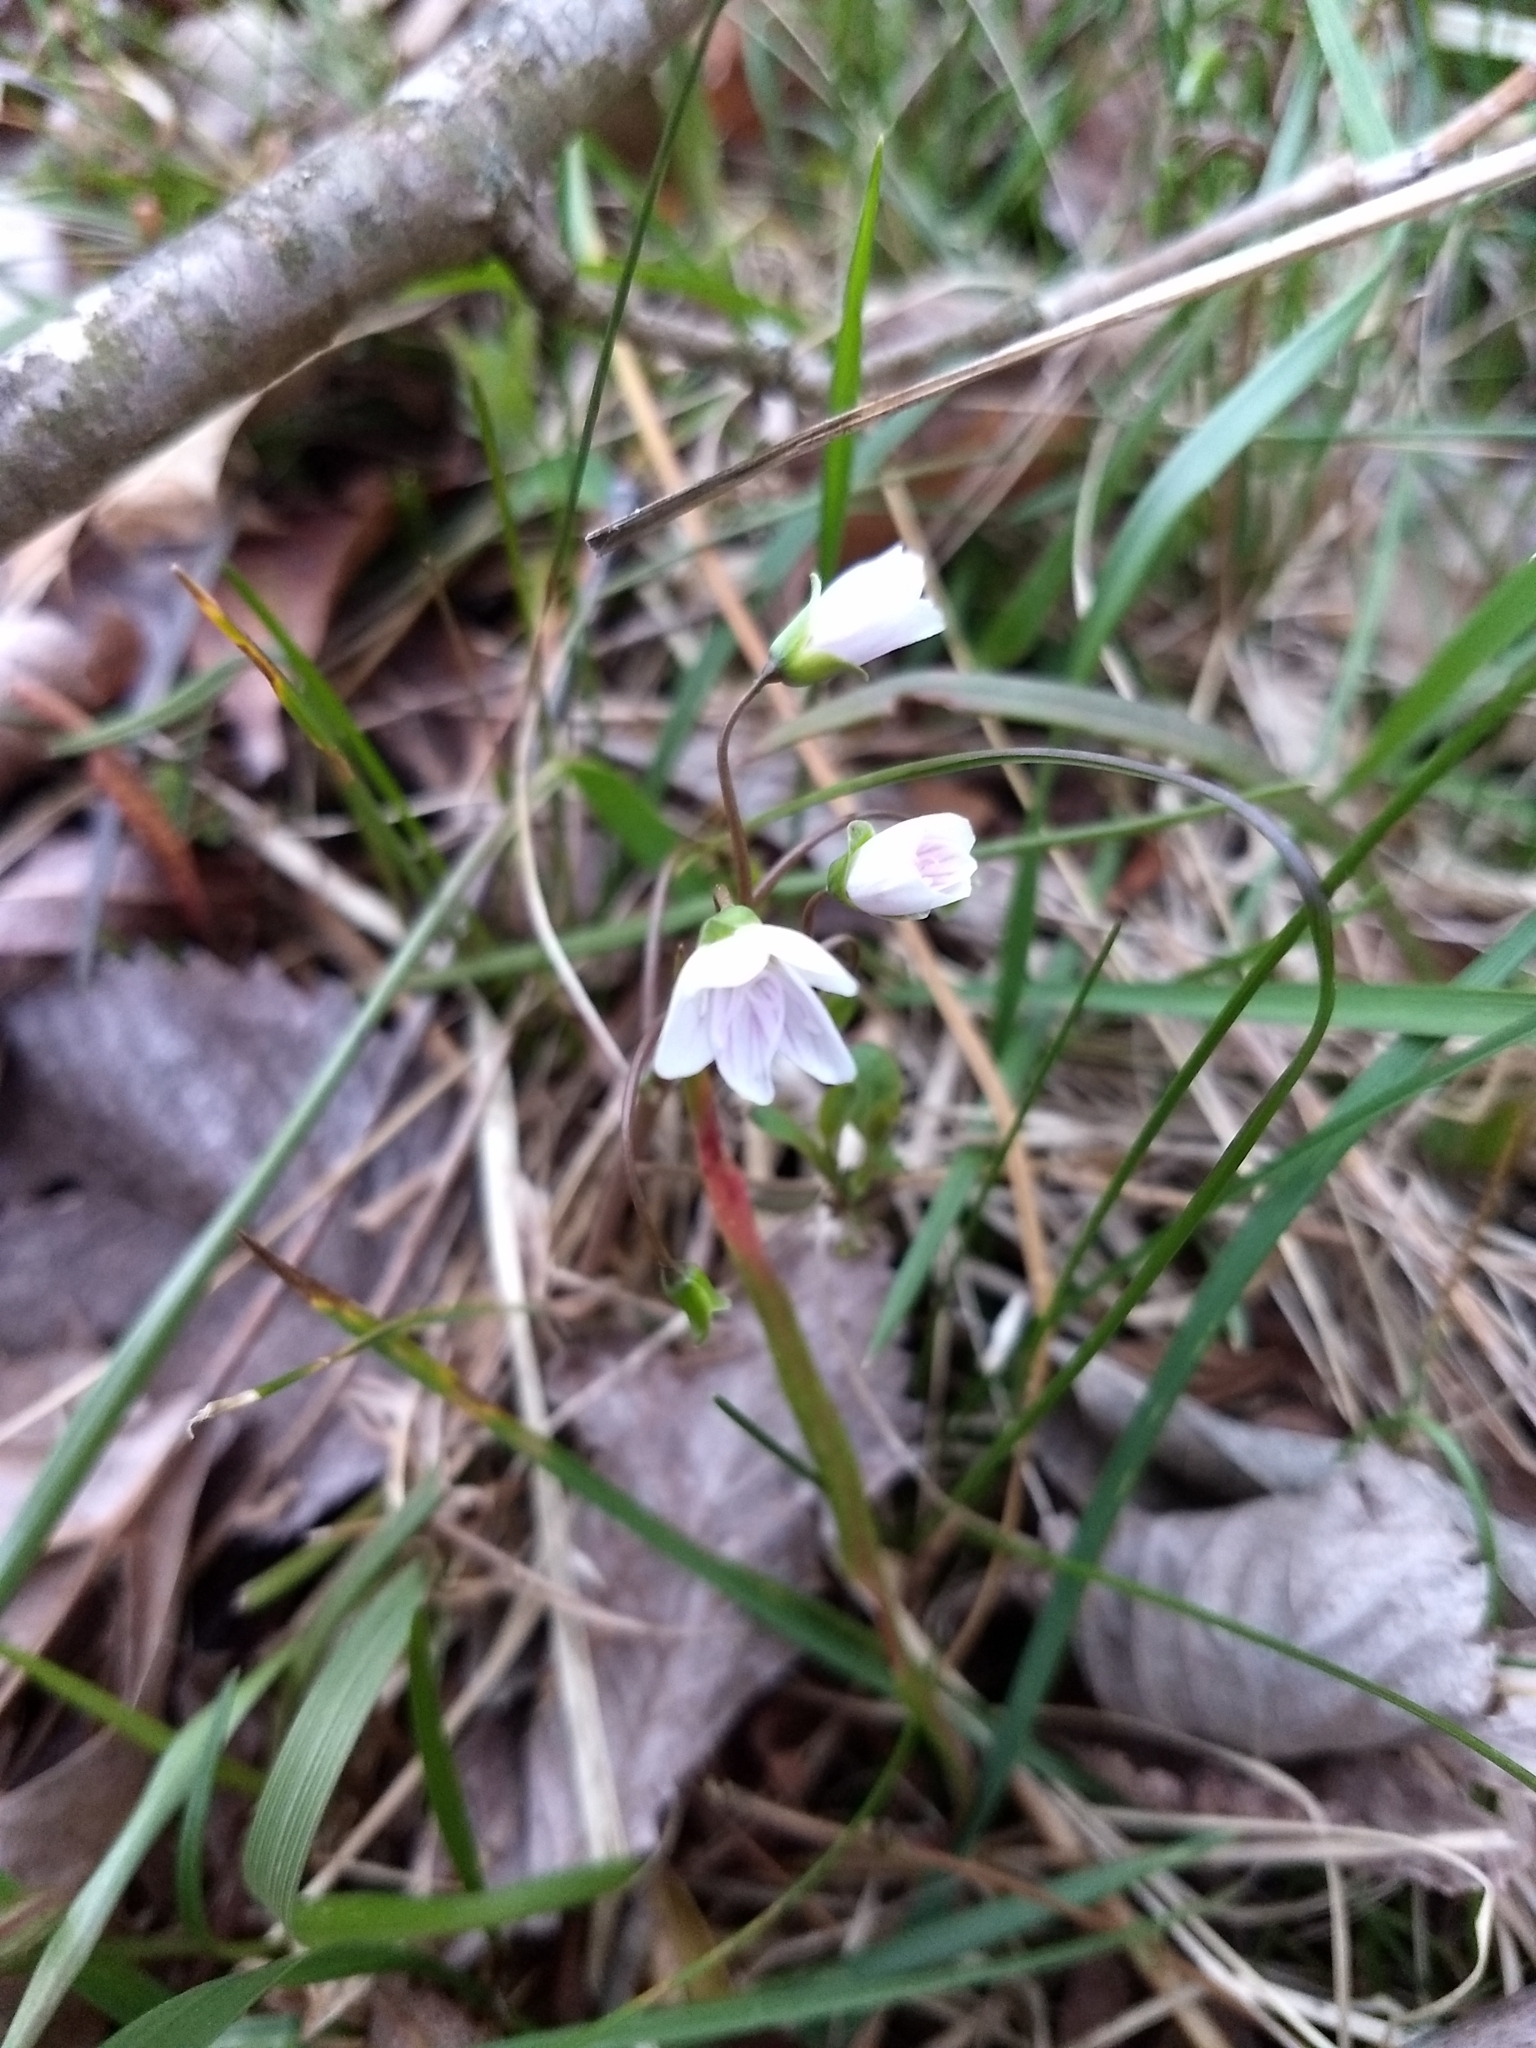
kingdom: Plantae
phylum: Tracheophyta
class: Magnoliopsida
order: Caryophyllales
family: Montiaceae
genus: Claytonia
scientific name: Claytonia virginica
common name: Virginia springbeauty
